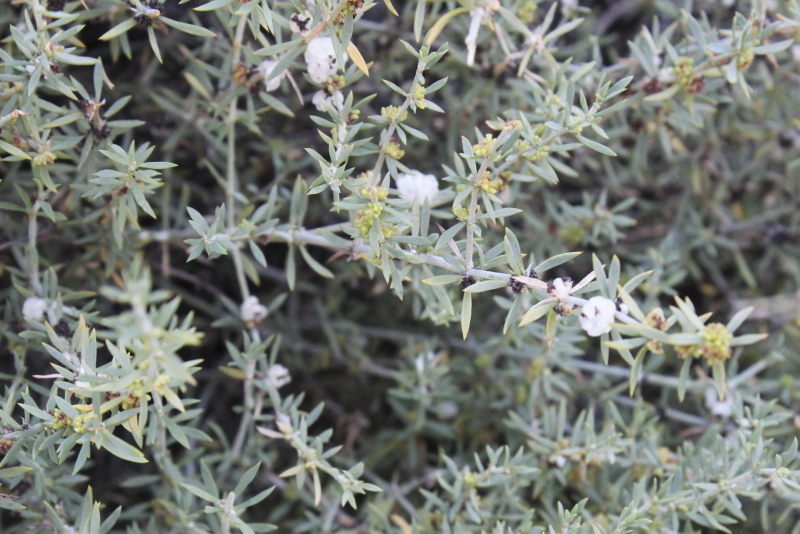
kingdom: Plantae
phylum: Tracheophyta
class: Magnoliopsida
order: Caryophyllales
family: Caryophyllaceae
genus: Pollichia
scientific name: Pollichia campestris
